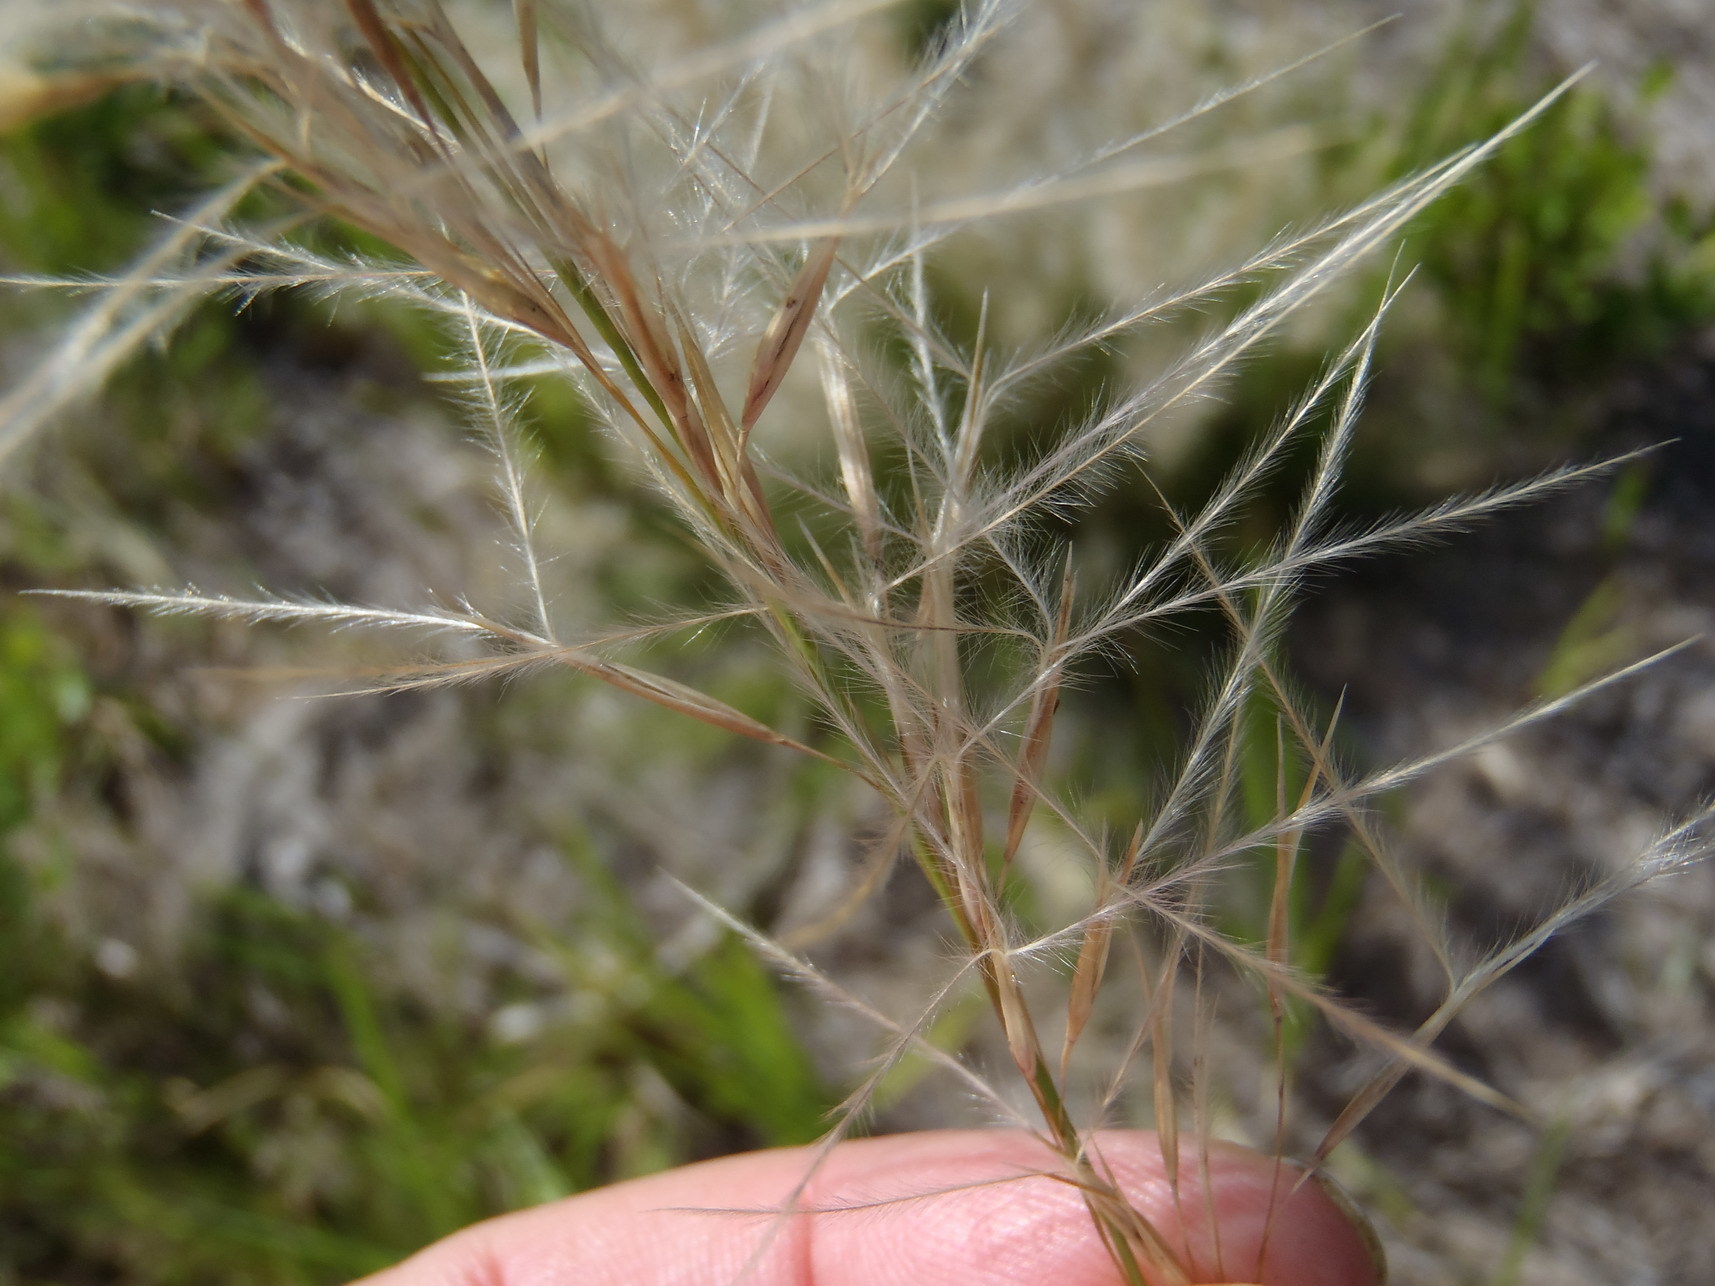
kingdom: Plantae
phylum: Tracheophyta
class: Liliopsida
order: Poales
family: Poaceae
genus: Stipagrostis
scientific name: Stipagrostis zeyheri
